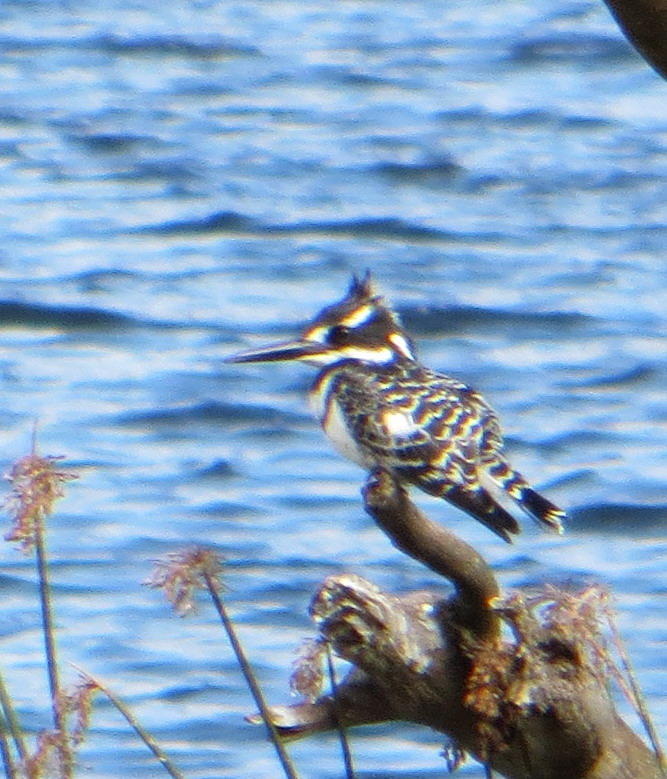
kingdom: Animalia
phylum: Chordata
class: Aves
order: Coraciiformes
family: Alcedinidae
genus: Ceryle
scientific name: Ceryle rudis
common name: Pied kingfisher
